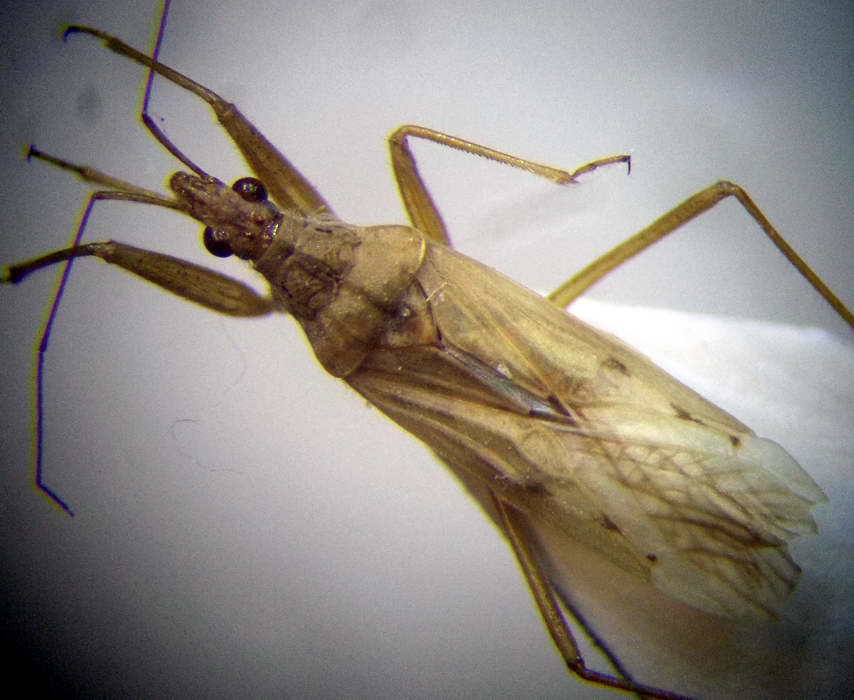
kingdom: Animalia
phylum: Arthropoda
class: Insecta
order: Hemiptera
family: Nabidae
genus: Nabis
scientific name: Nabis ferus
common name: Field damsel bug
